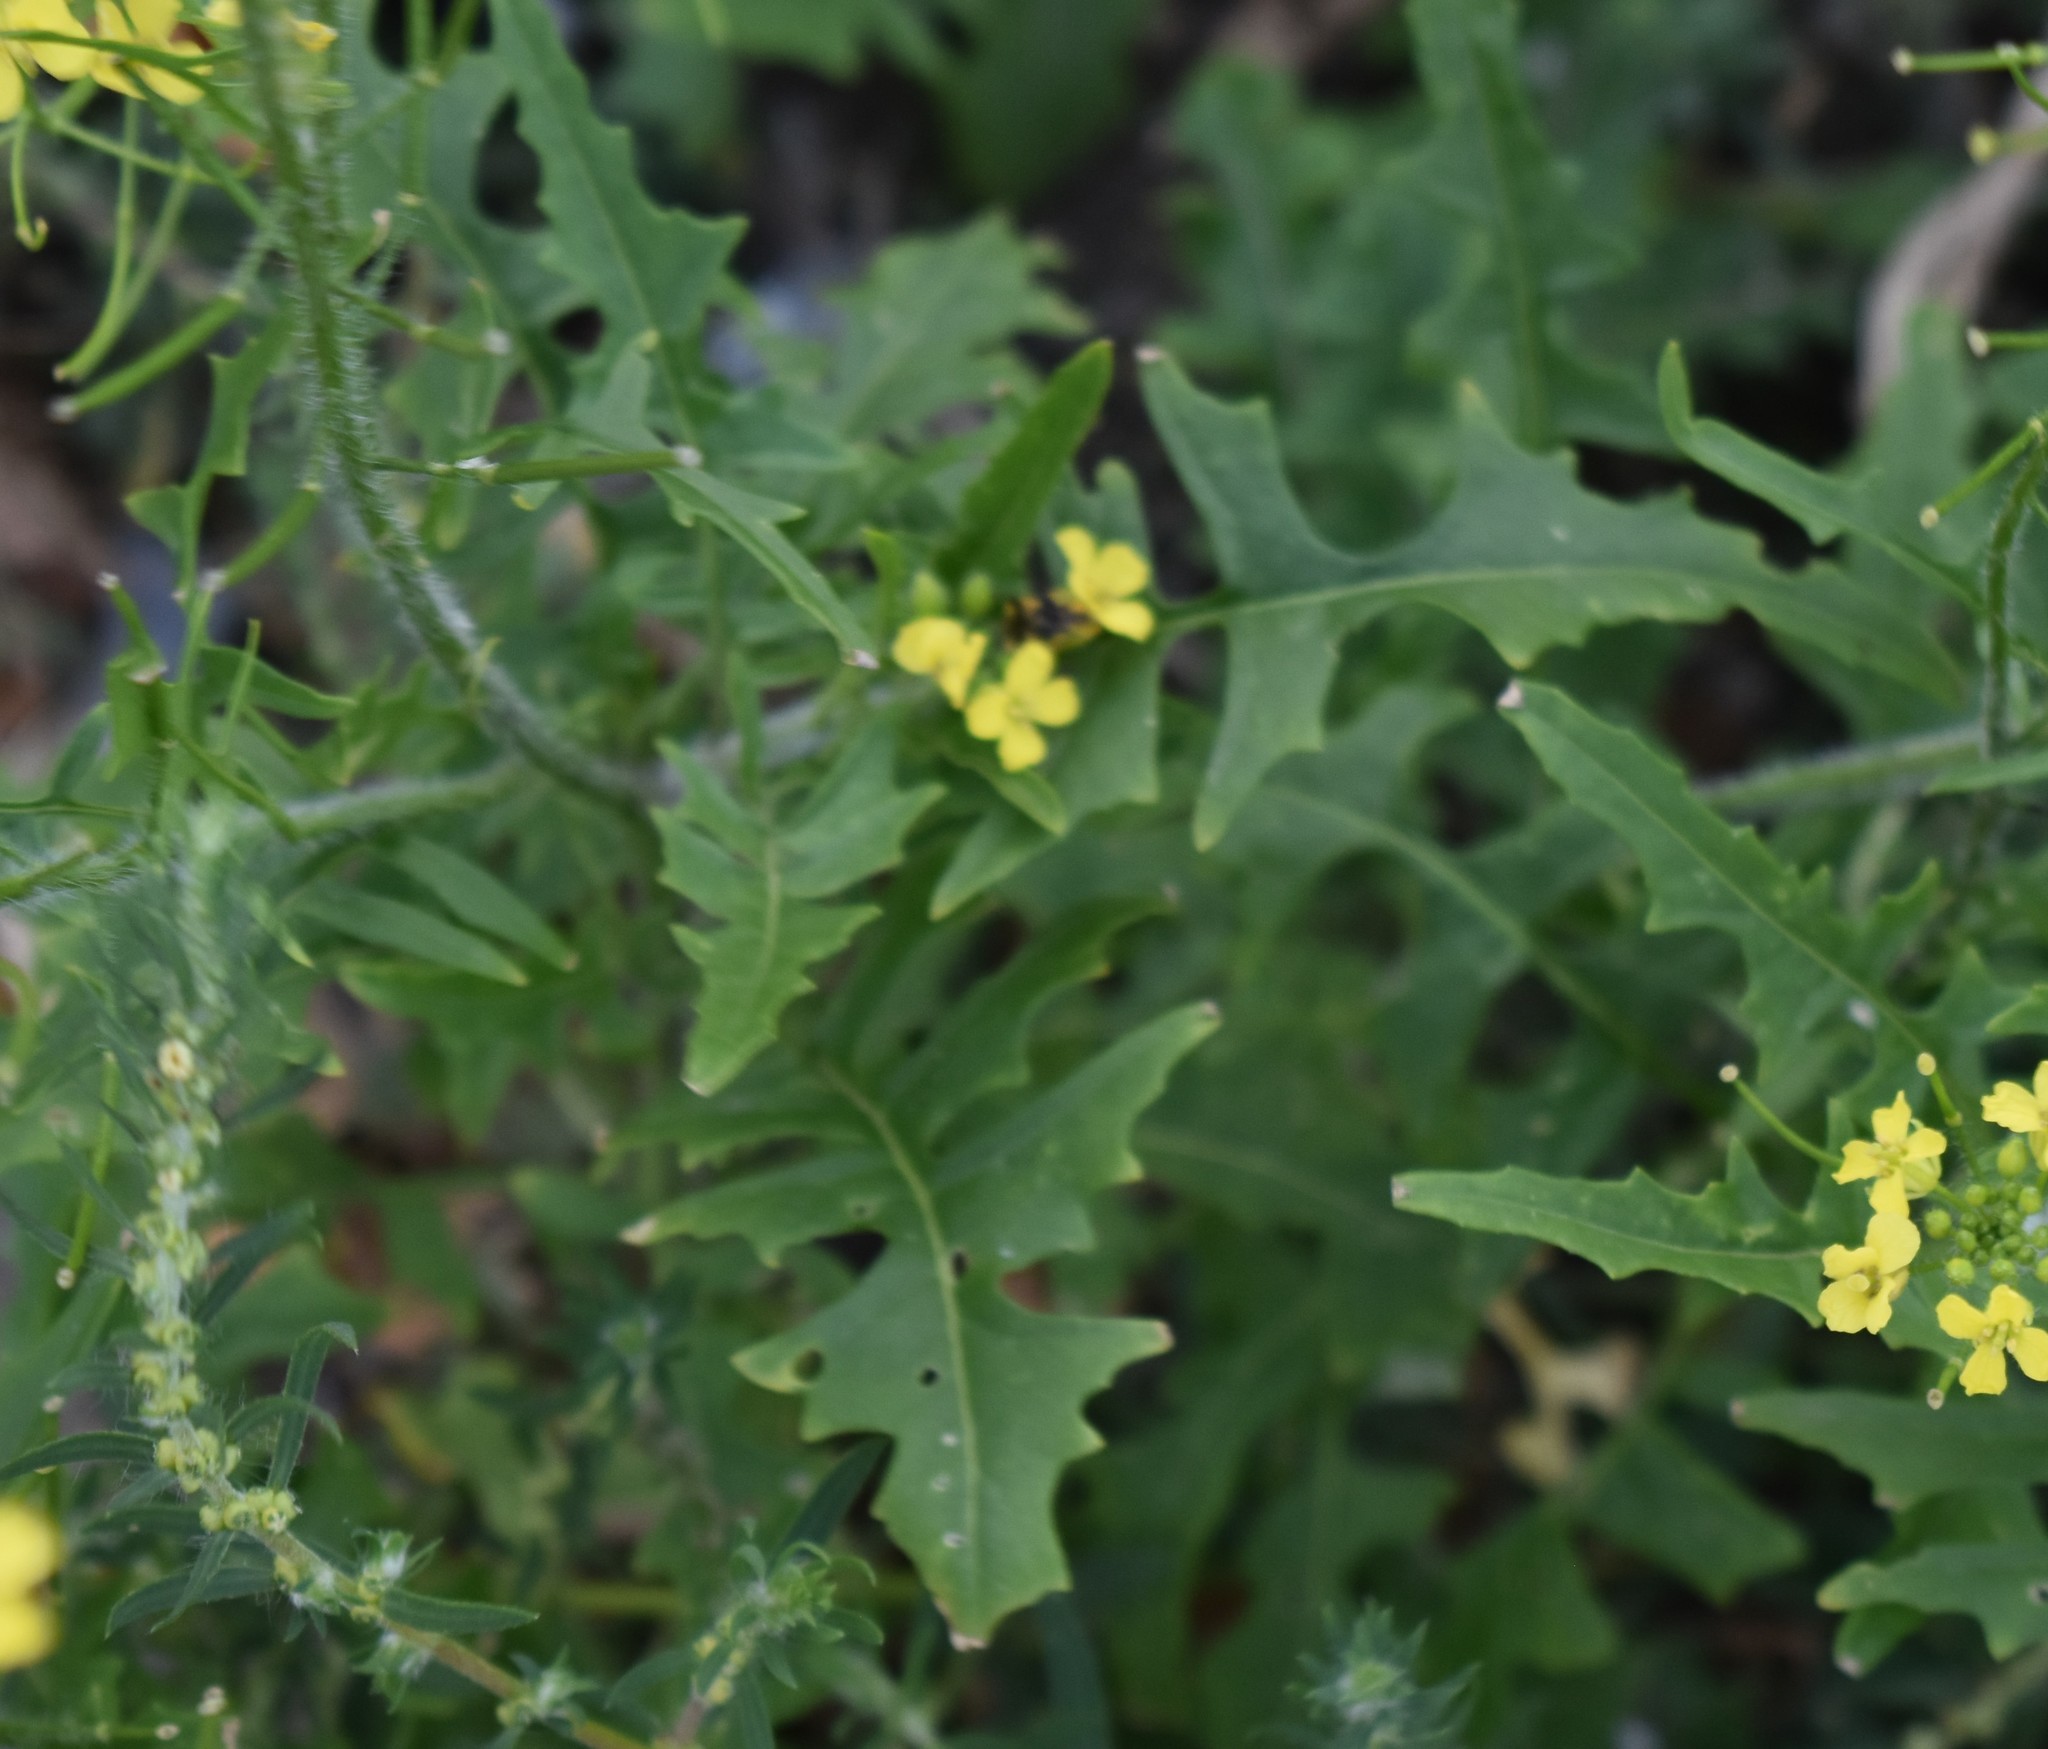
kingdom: Plantae
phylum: Tracheophyta
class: Magnoliopsida
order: Brassicales
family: Brassicaceae
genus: Sisymbrium
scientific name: Sisymbrium loeselii
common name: False london-rocket
